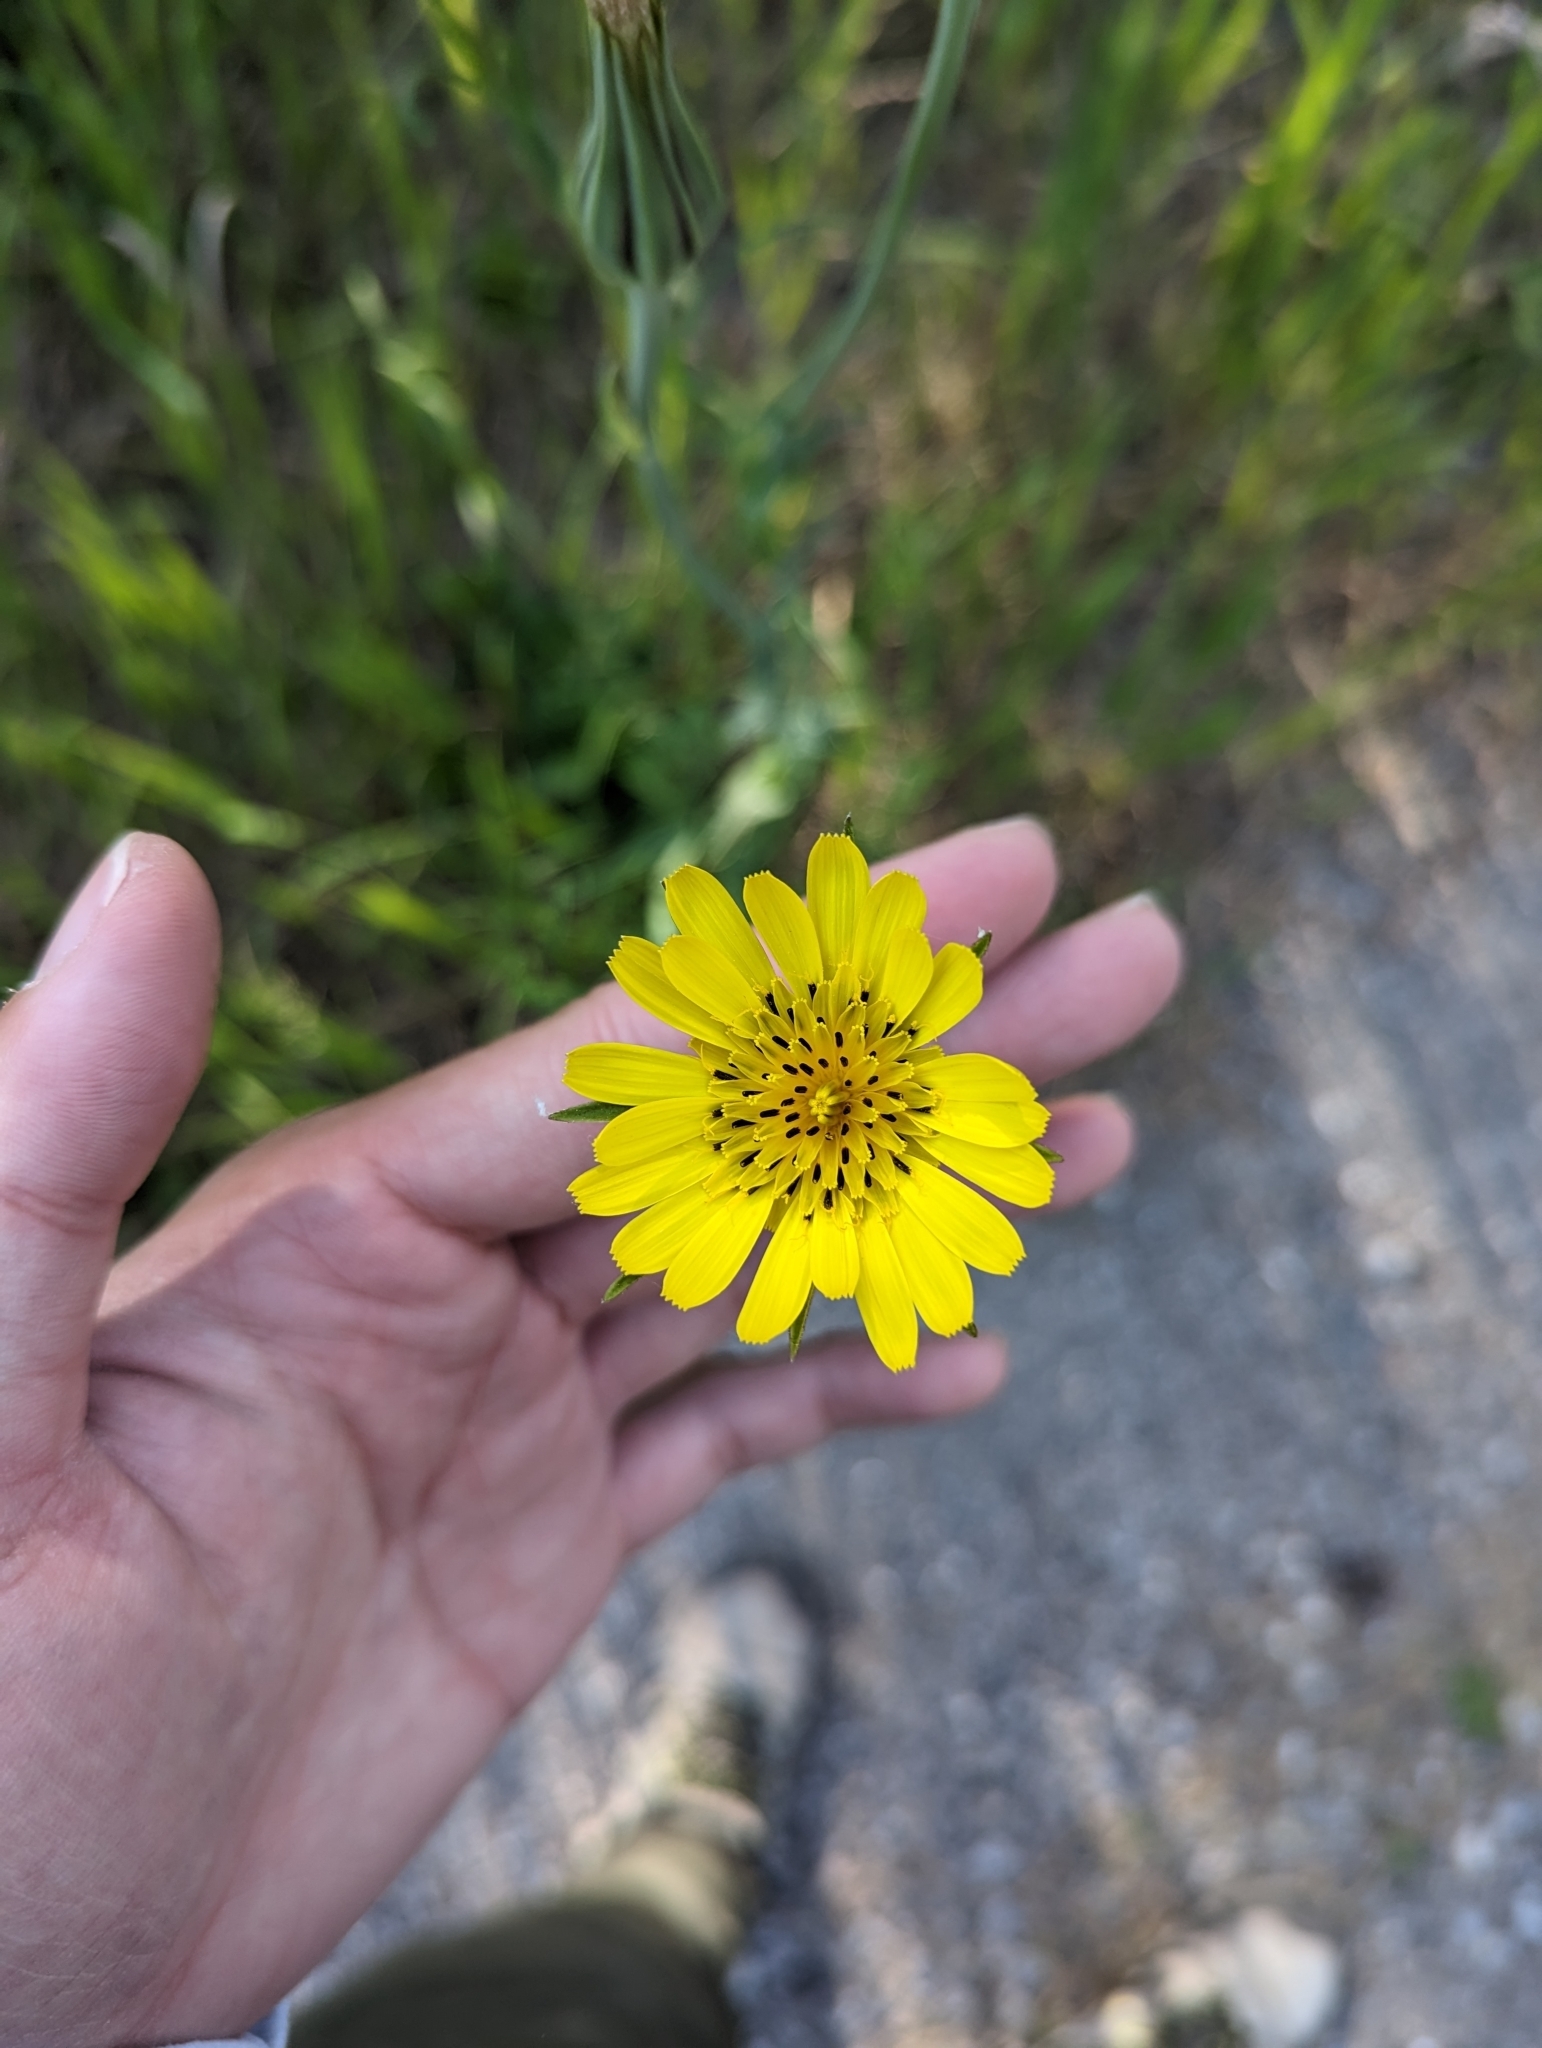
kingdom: Plantae
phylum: Tracheophyta
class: Magnoliopsida
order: Asterales
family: Asteraceae
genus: Tragopogon
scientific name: Tragopogon pratensis
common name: Goat's-beard
